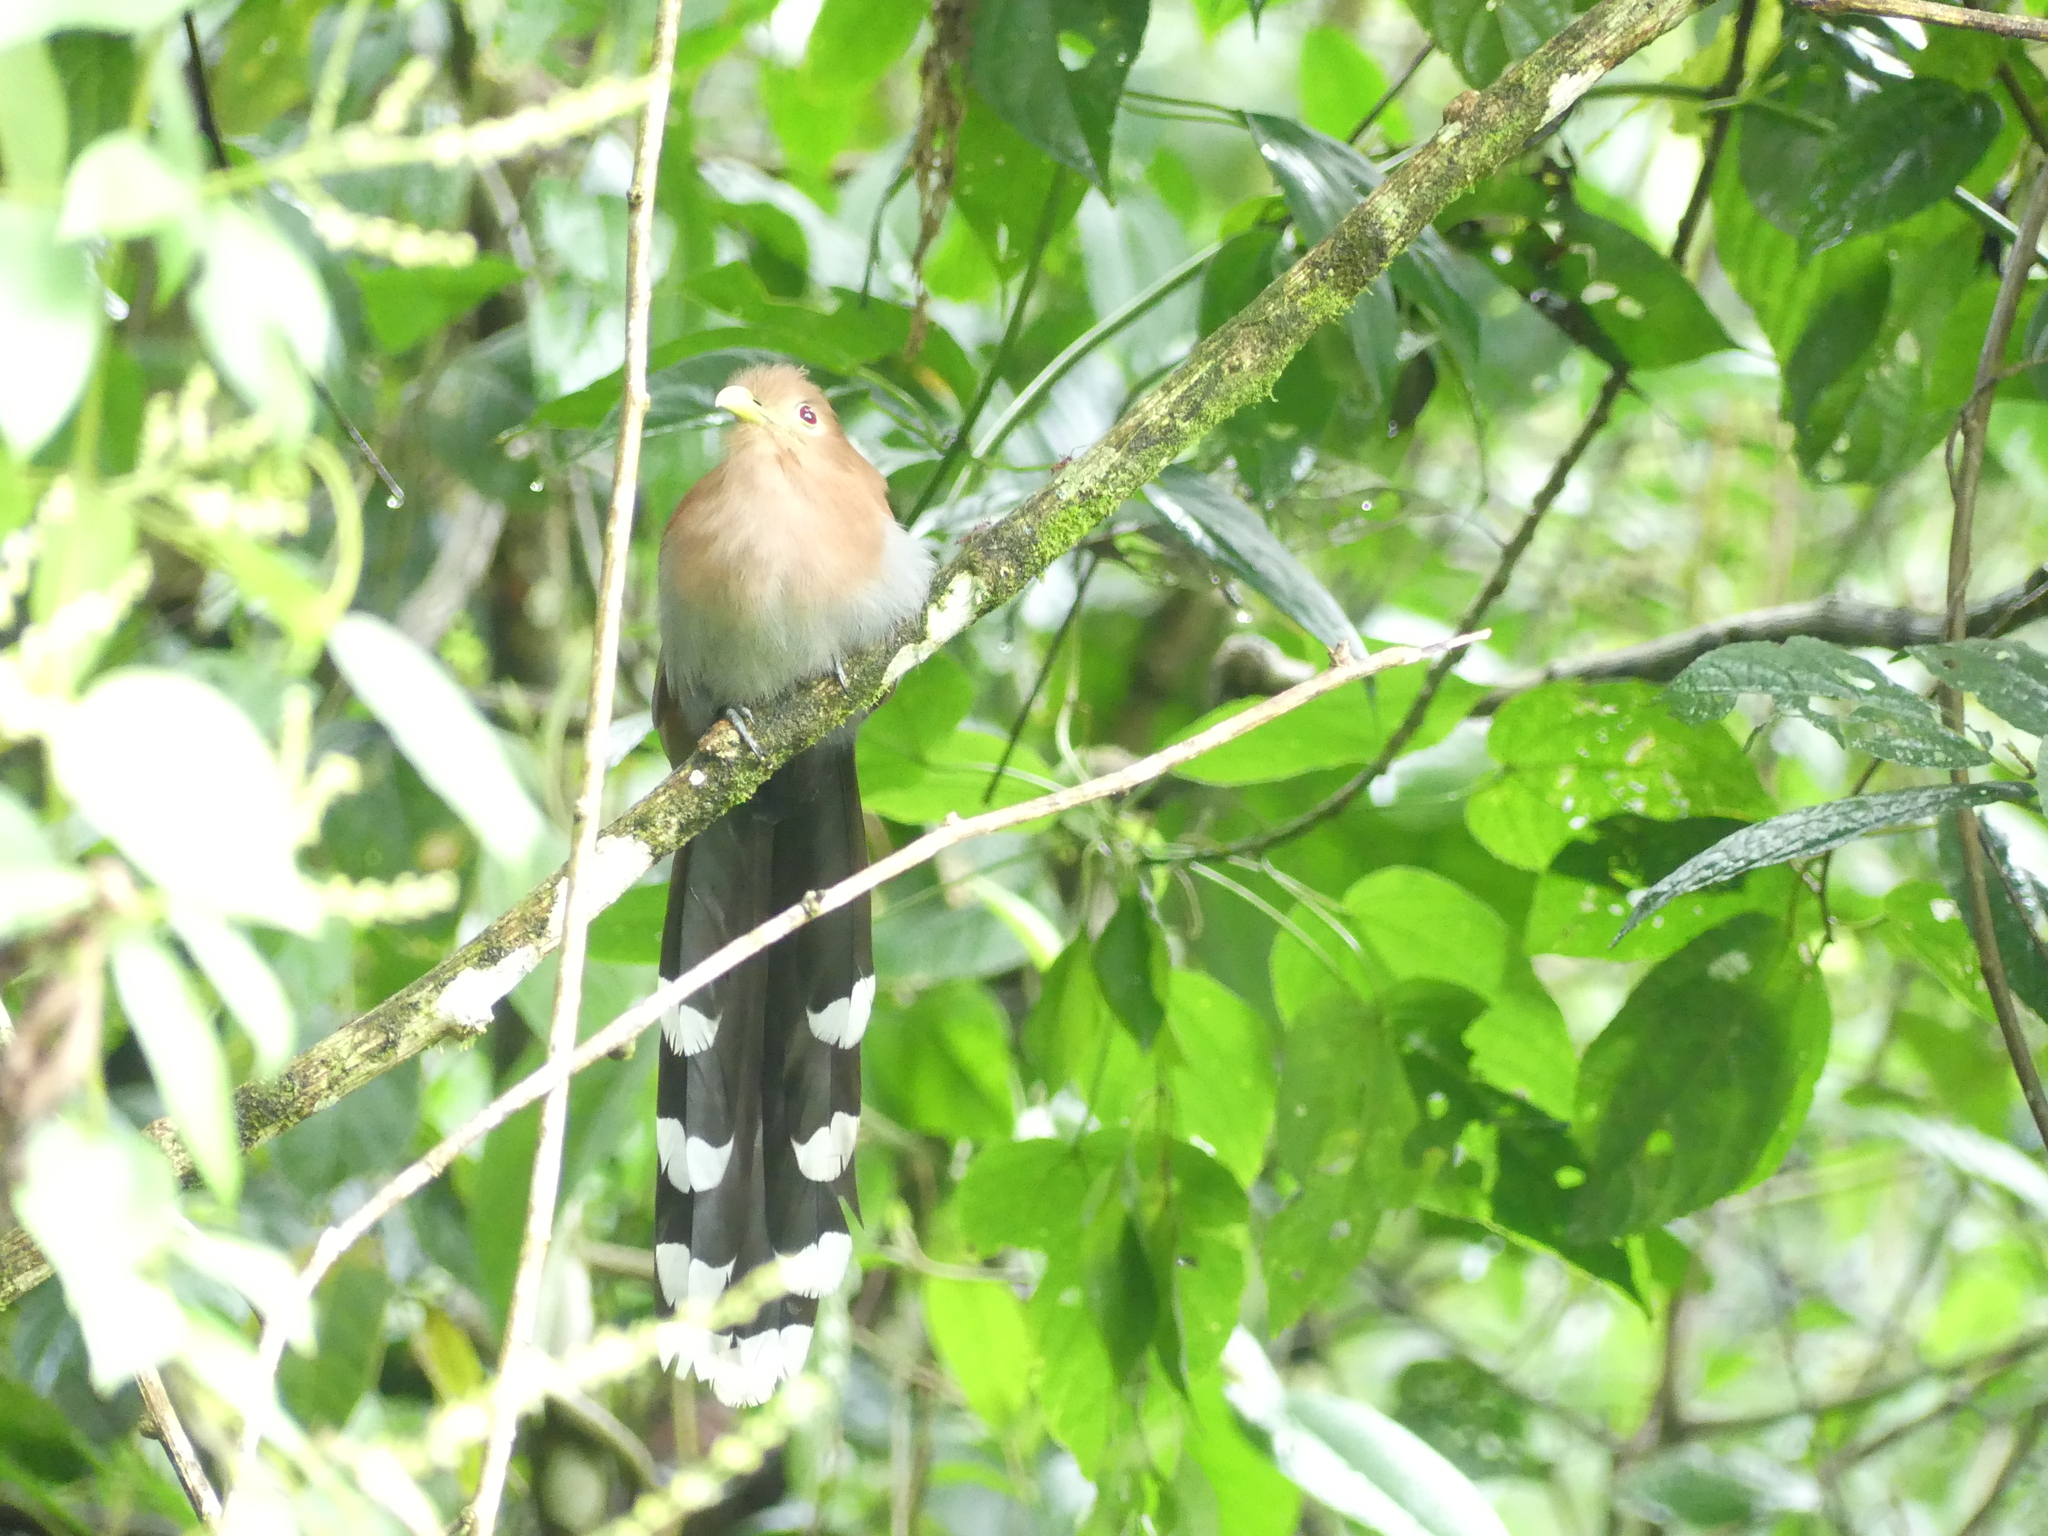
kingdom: Animalia
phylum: Chordata
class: Aves
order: Cuculiformes
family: Cuculidae
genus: Piaya
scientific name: Piaya cayana
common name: Squirrel cuckoo
